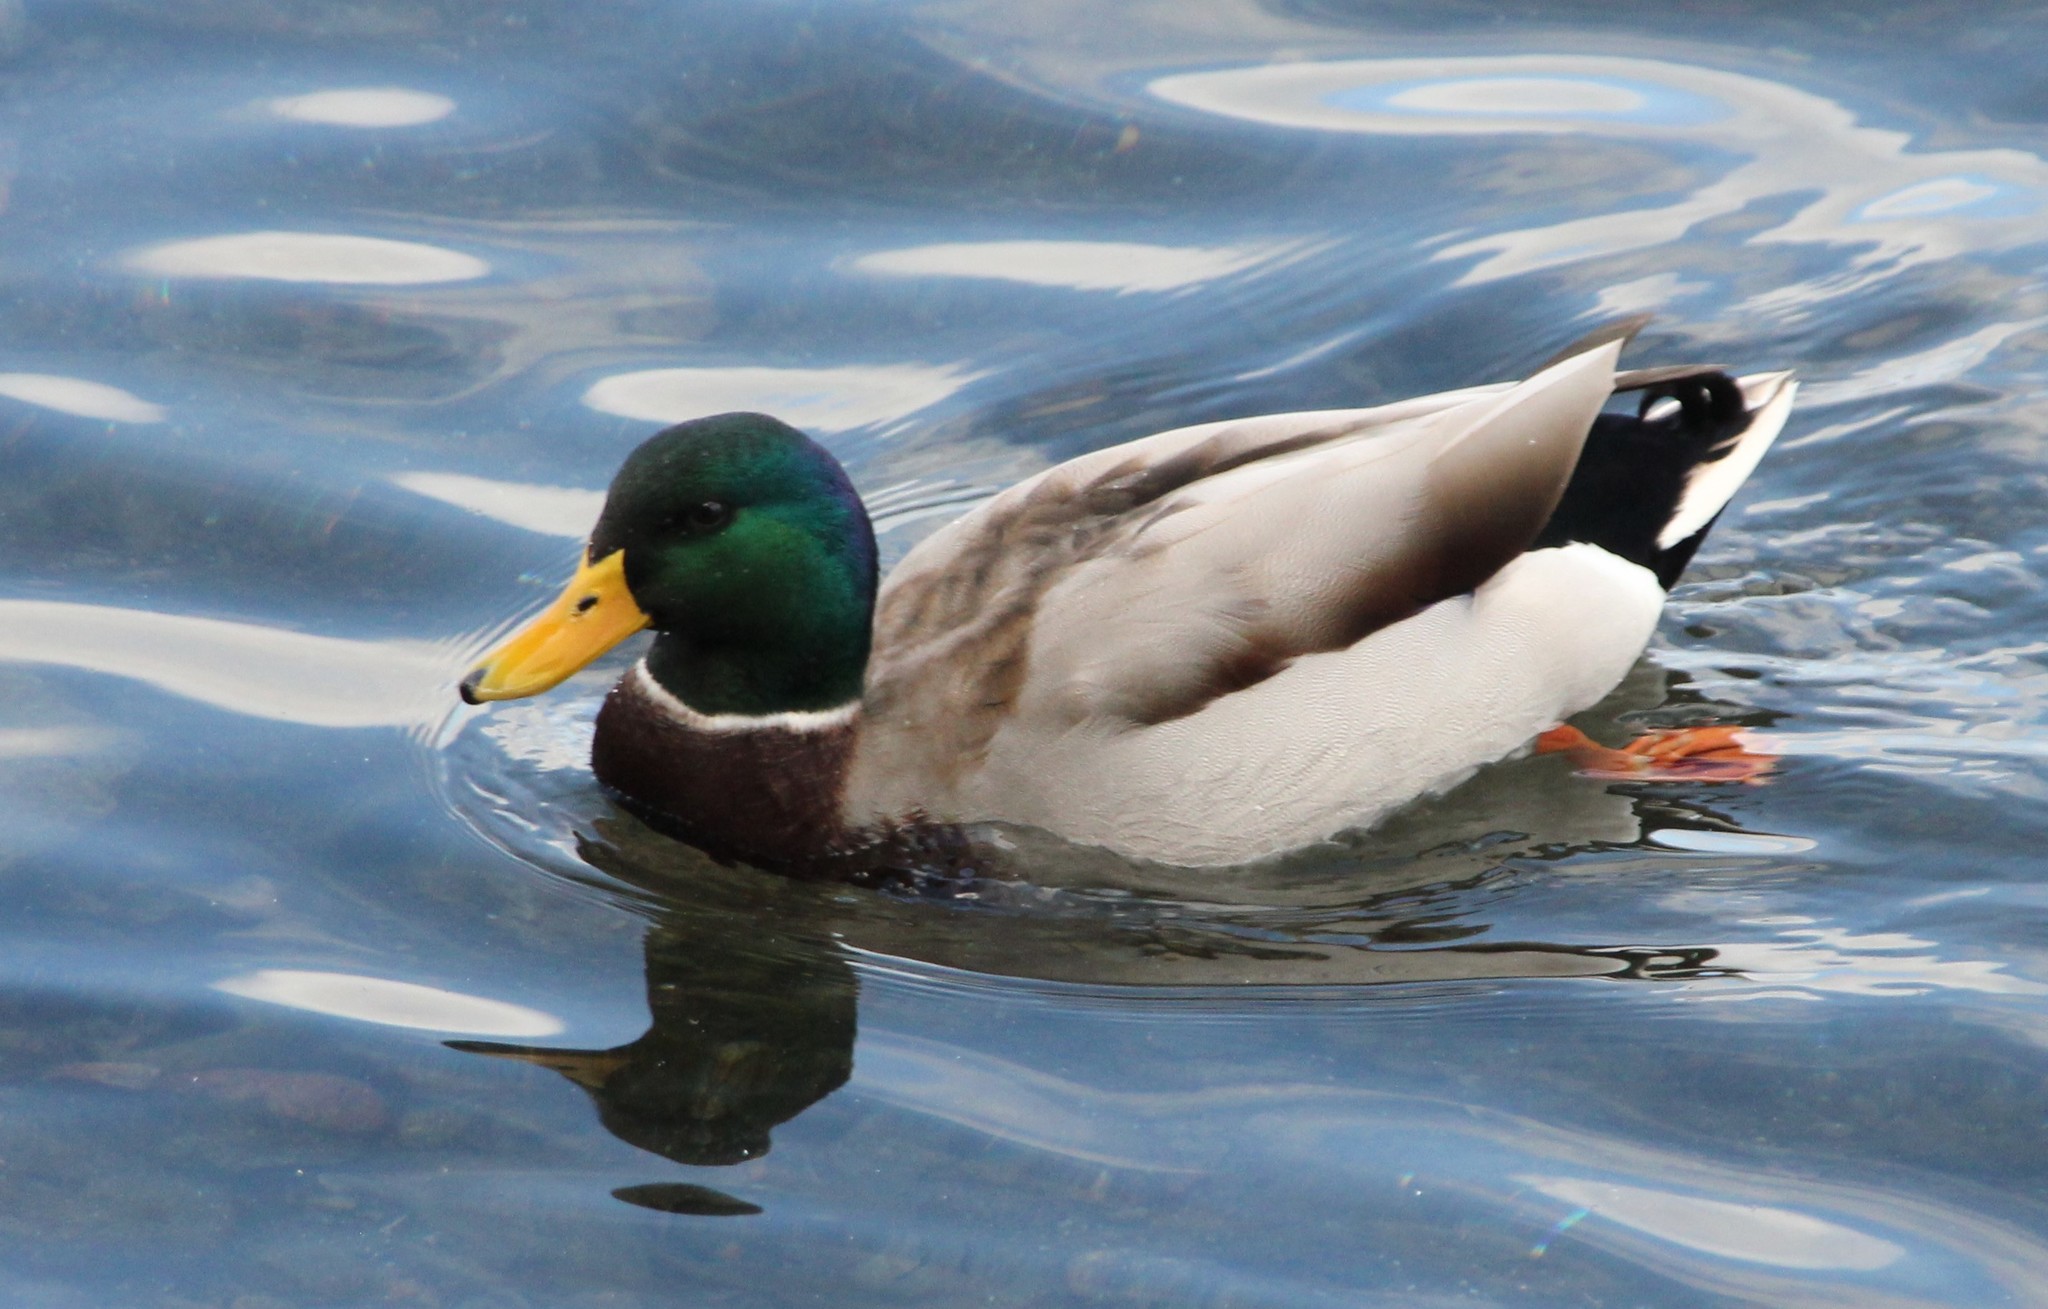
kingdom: Animalia
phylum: Chordata
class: Aves
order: Anseriformes
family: Anatidae
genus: Anas
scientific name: Anas platyrhynchos
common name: Mallard
